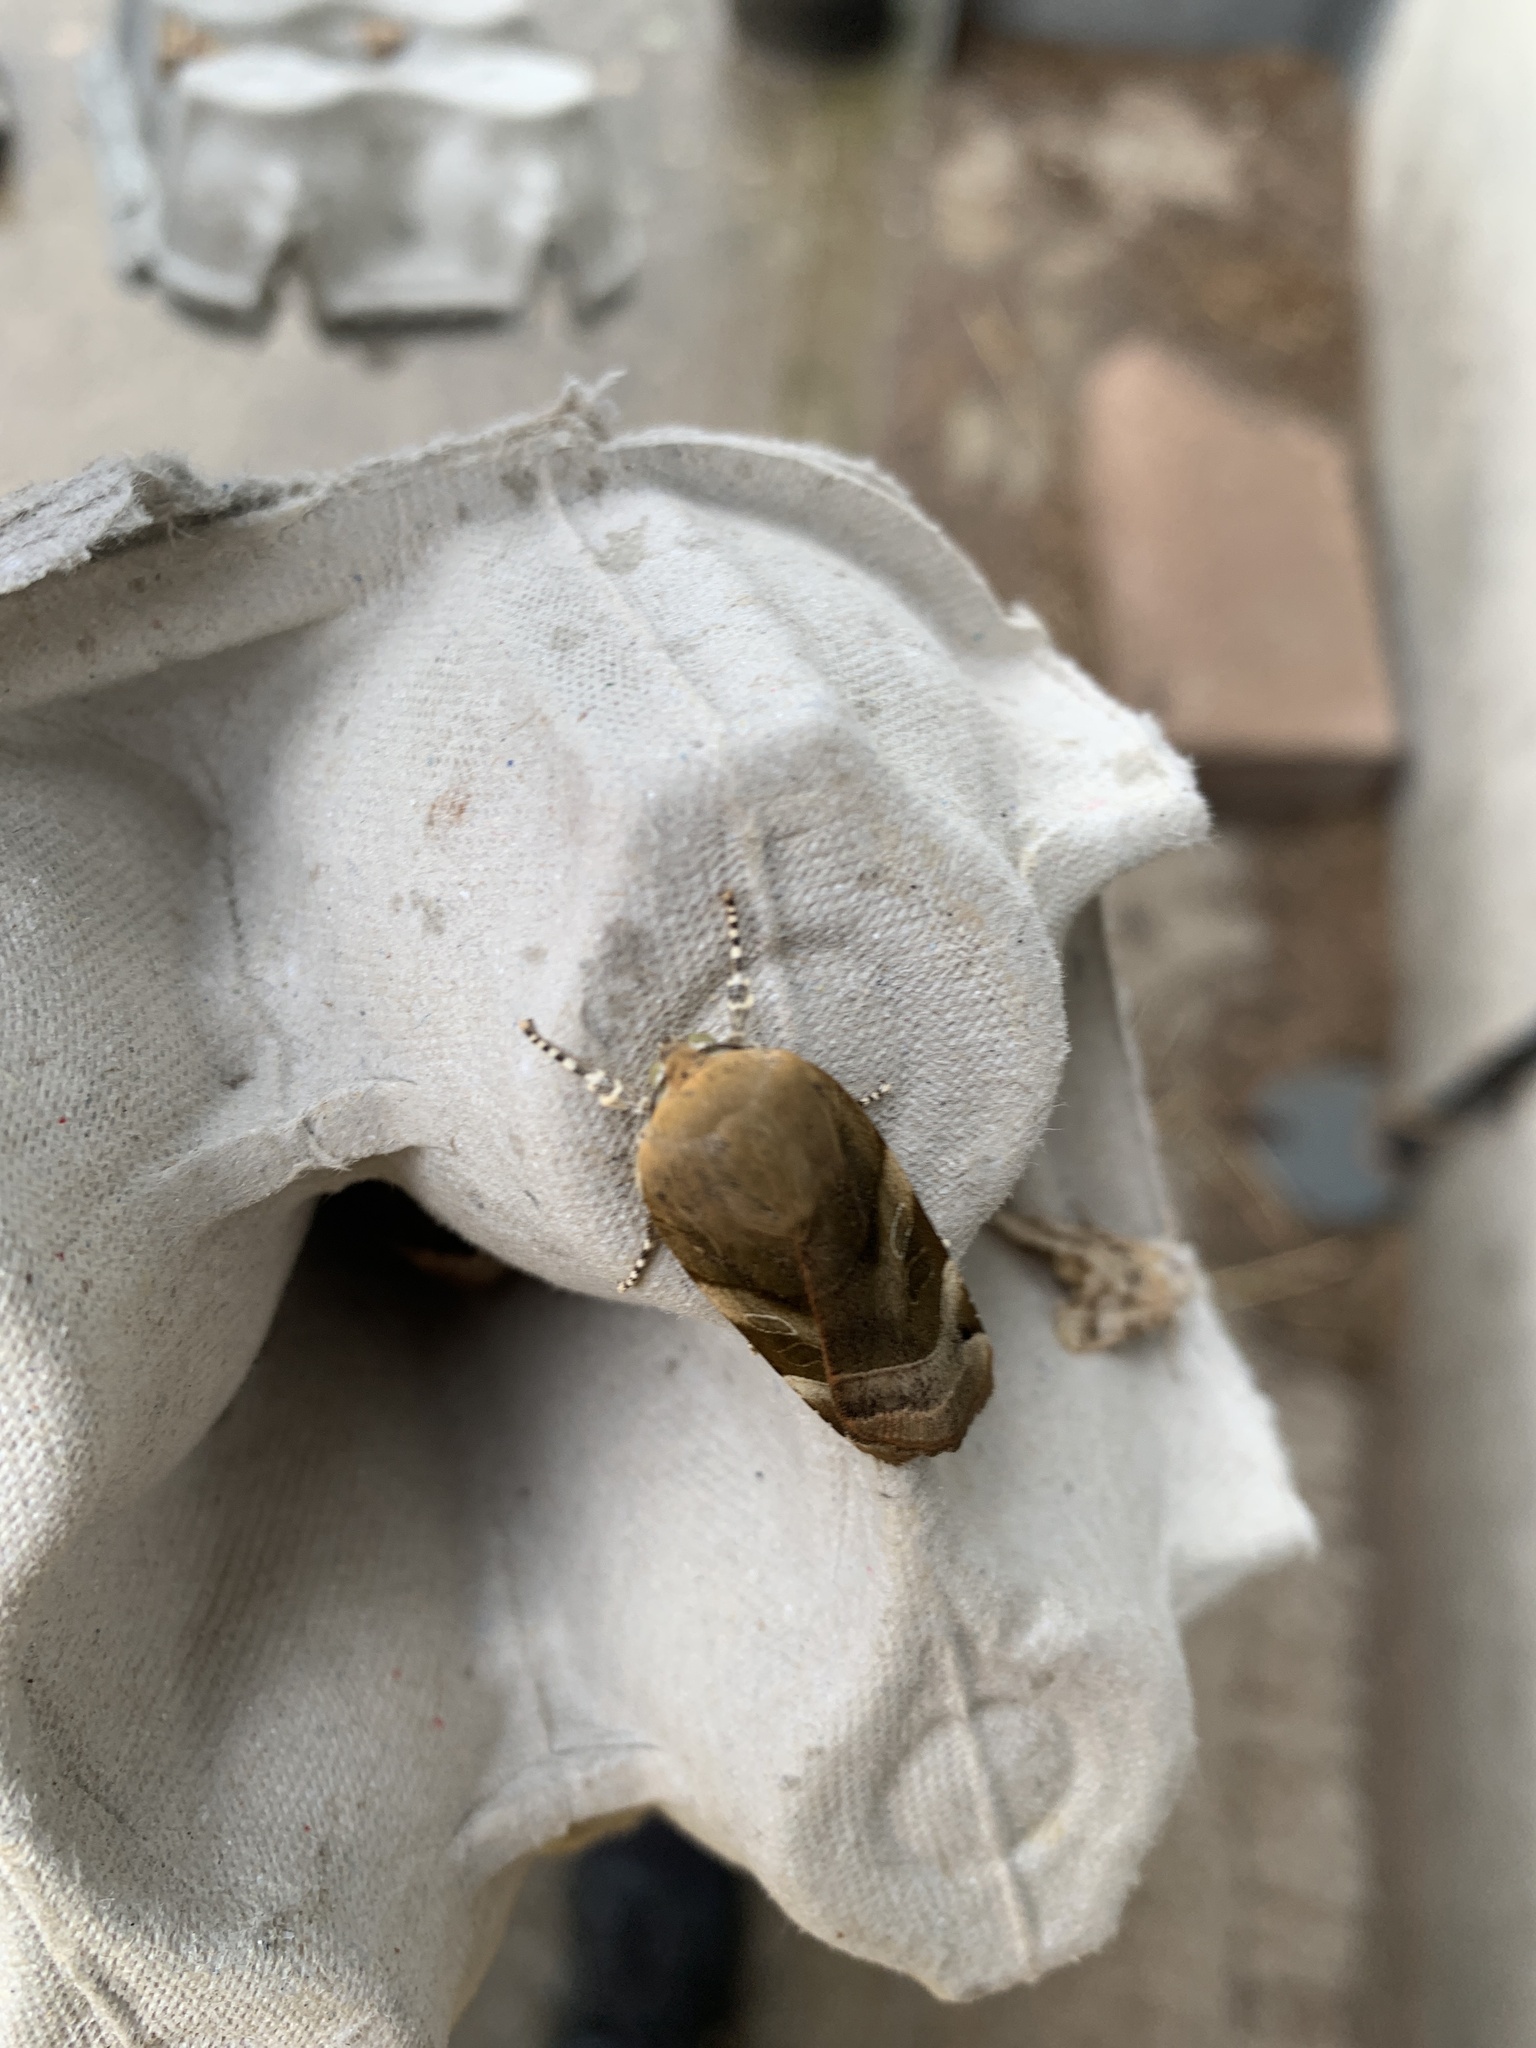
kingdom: Animalia
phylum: Arthropoda
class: Insecta
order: Lepidoptera
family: Noctuidae
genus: Noctua
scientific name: Noctua fimbriata
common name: Broad-bordered yellow underwing
